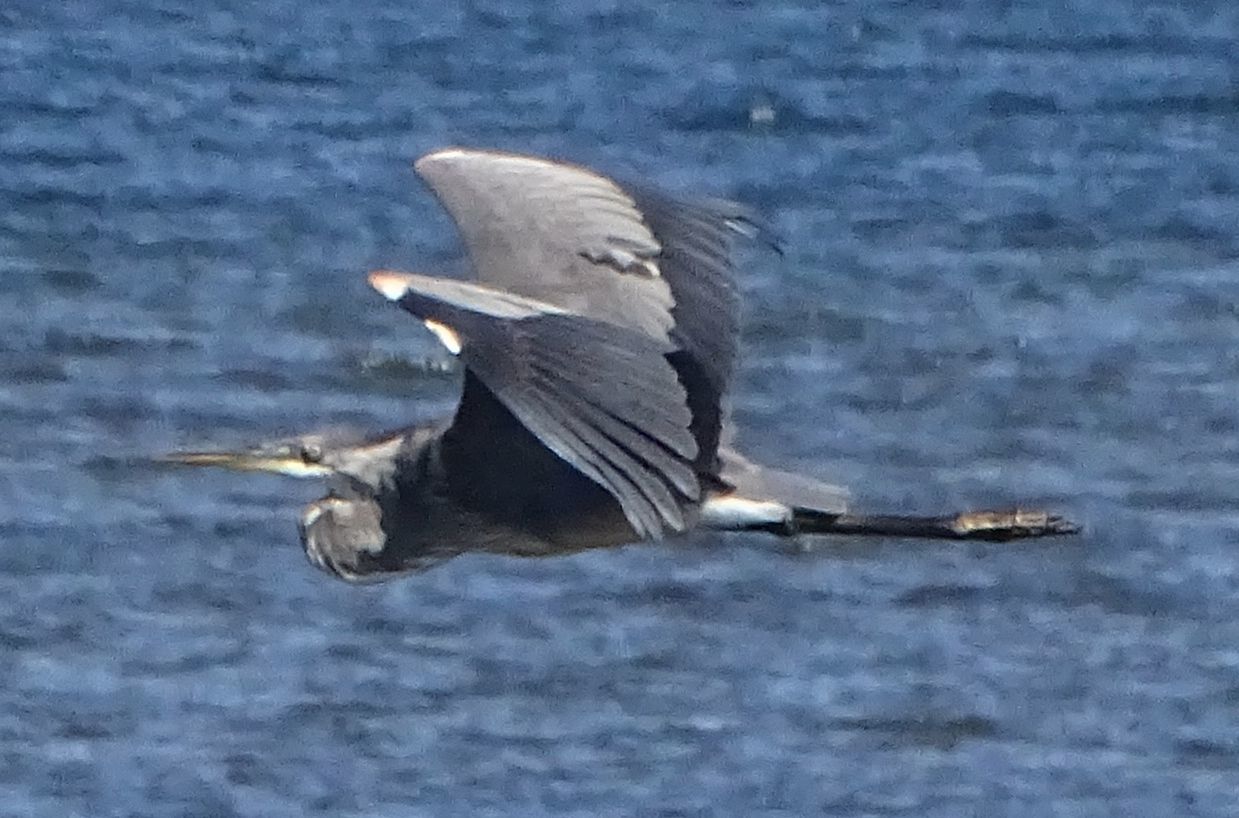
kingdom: Animalia
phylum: Chordata
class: Aves
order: Pelecaniformes
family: Ardeidae
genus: Ardea
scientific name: Ardea herodias
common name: Great blue heron
